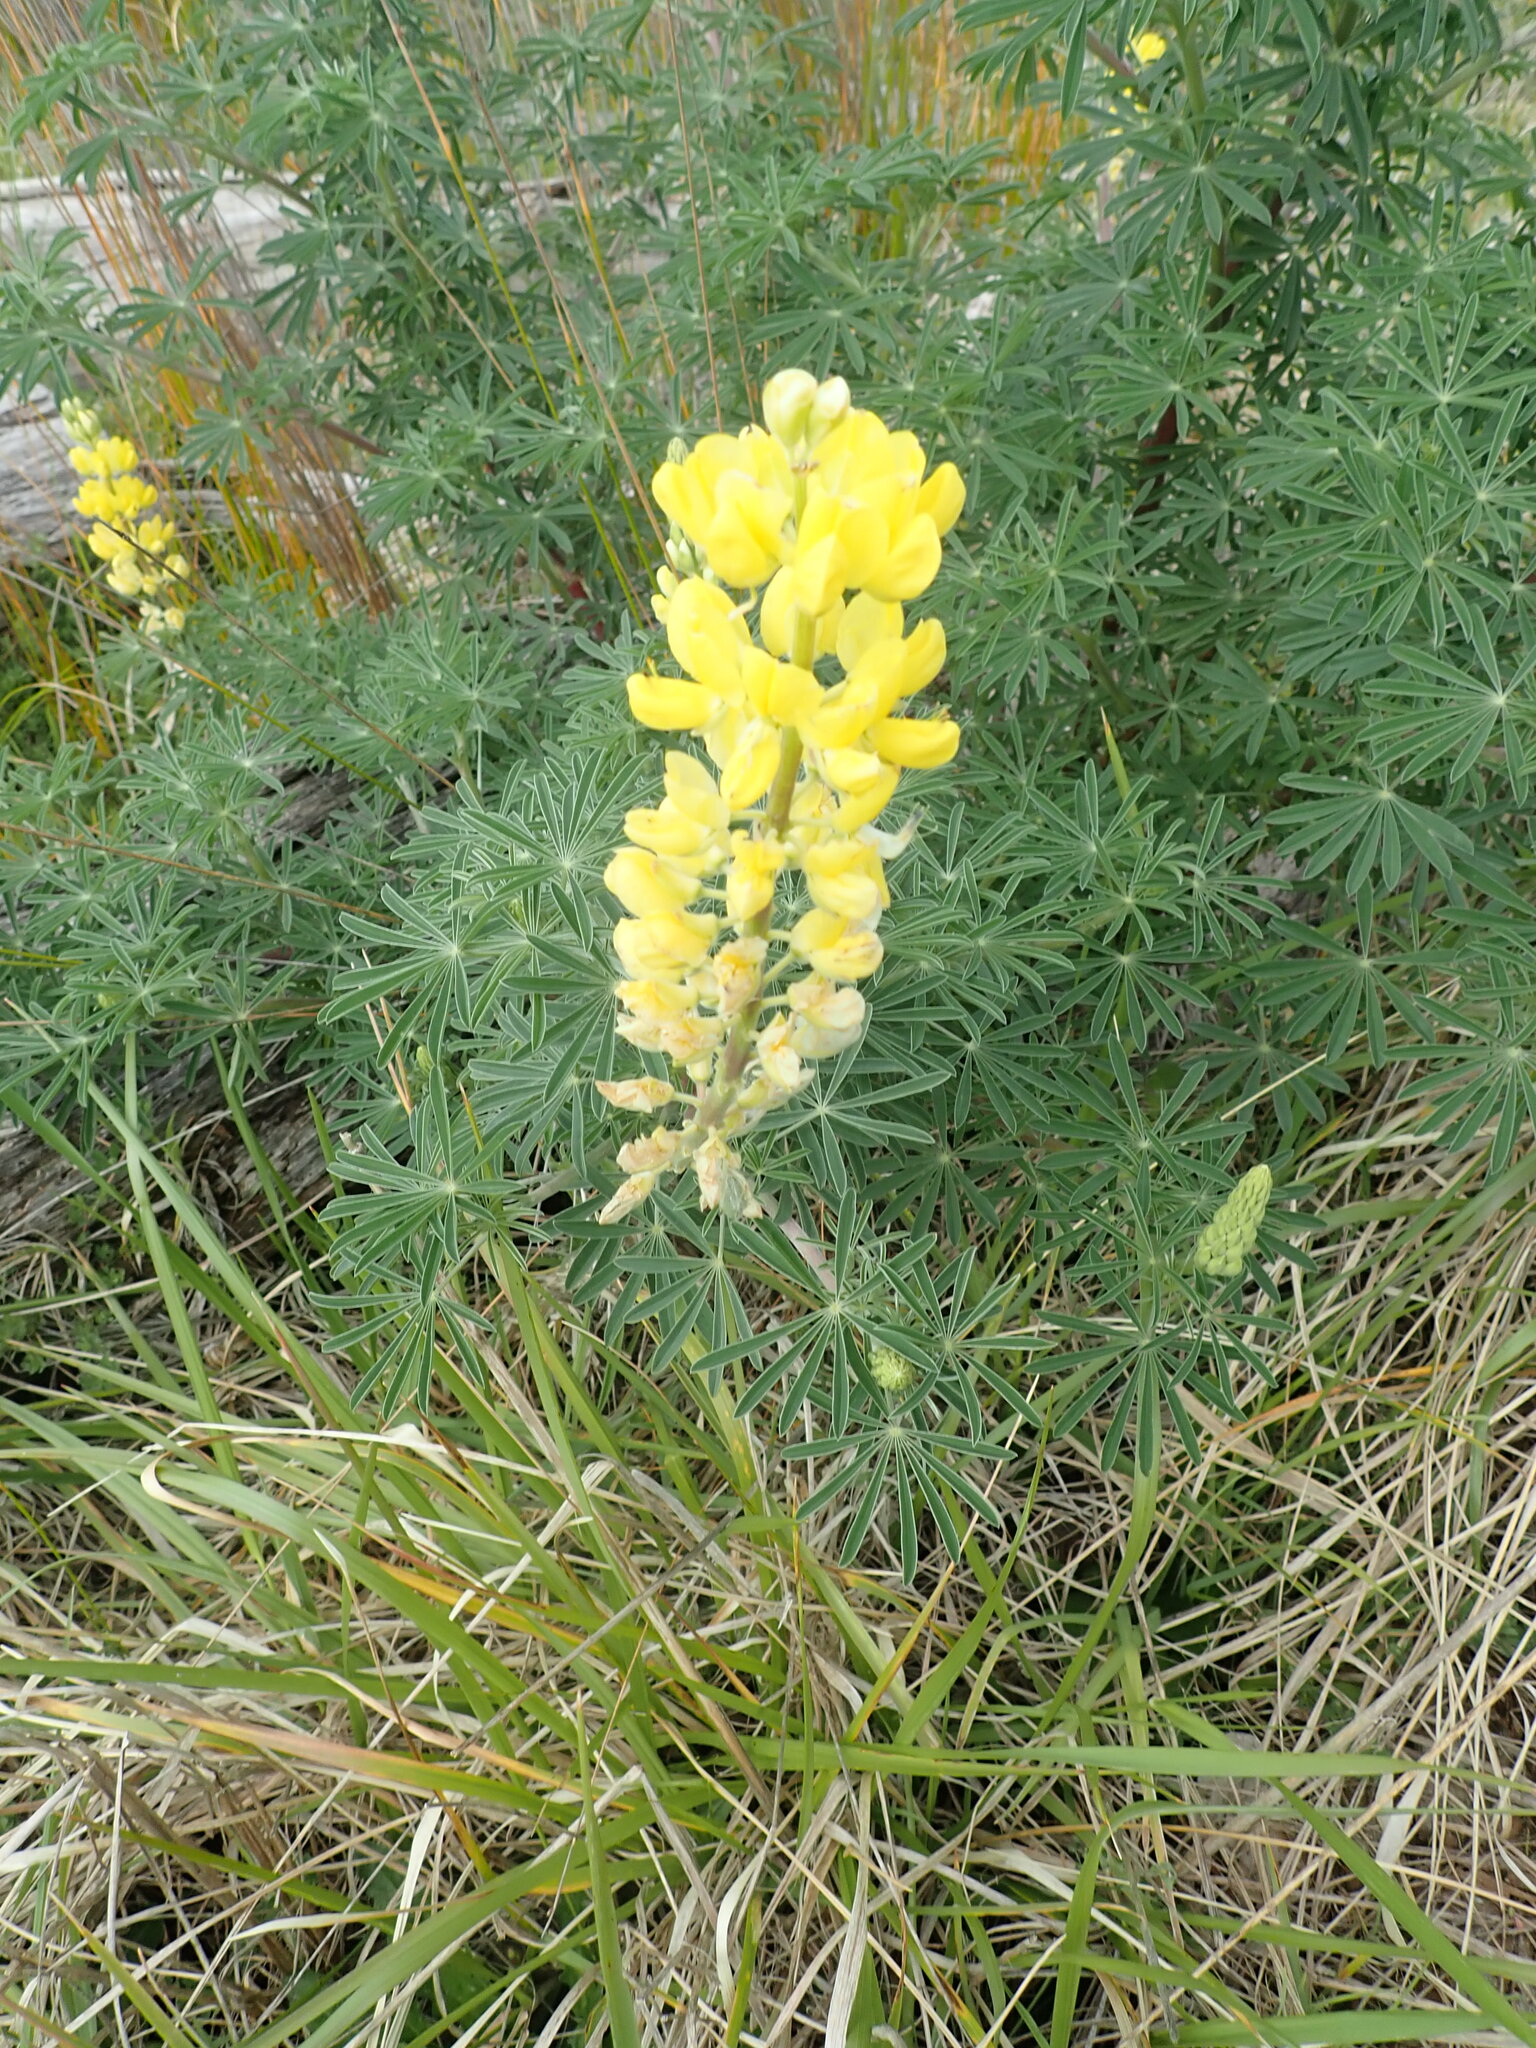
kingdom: Plantae
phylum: Tracheophyta
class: Magnoliopsida
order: Fabales
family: Fabaceae
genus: Lupinus
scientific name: Lupinus arboreus
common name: Yellow bush lupine
